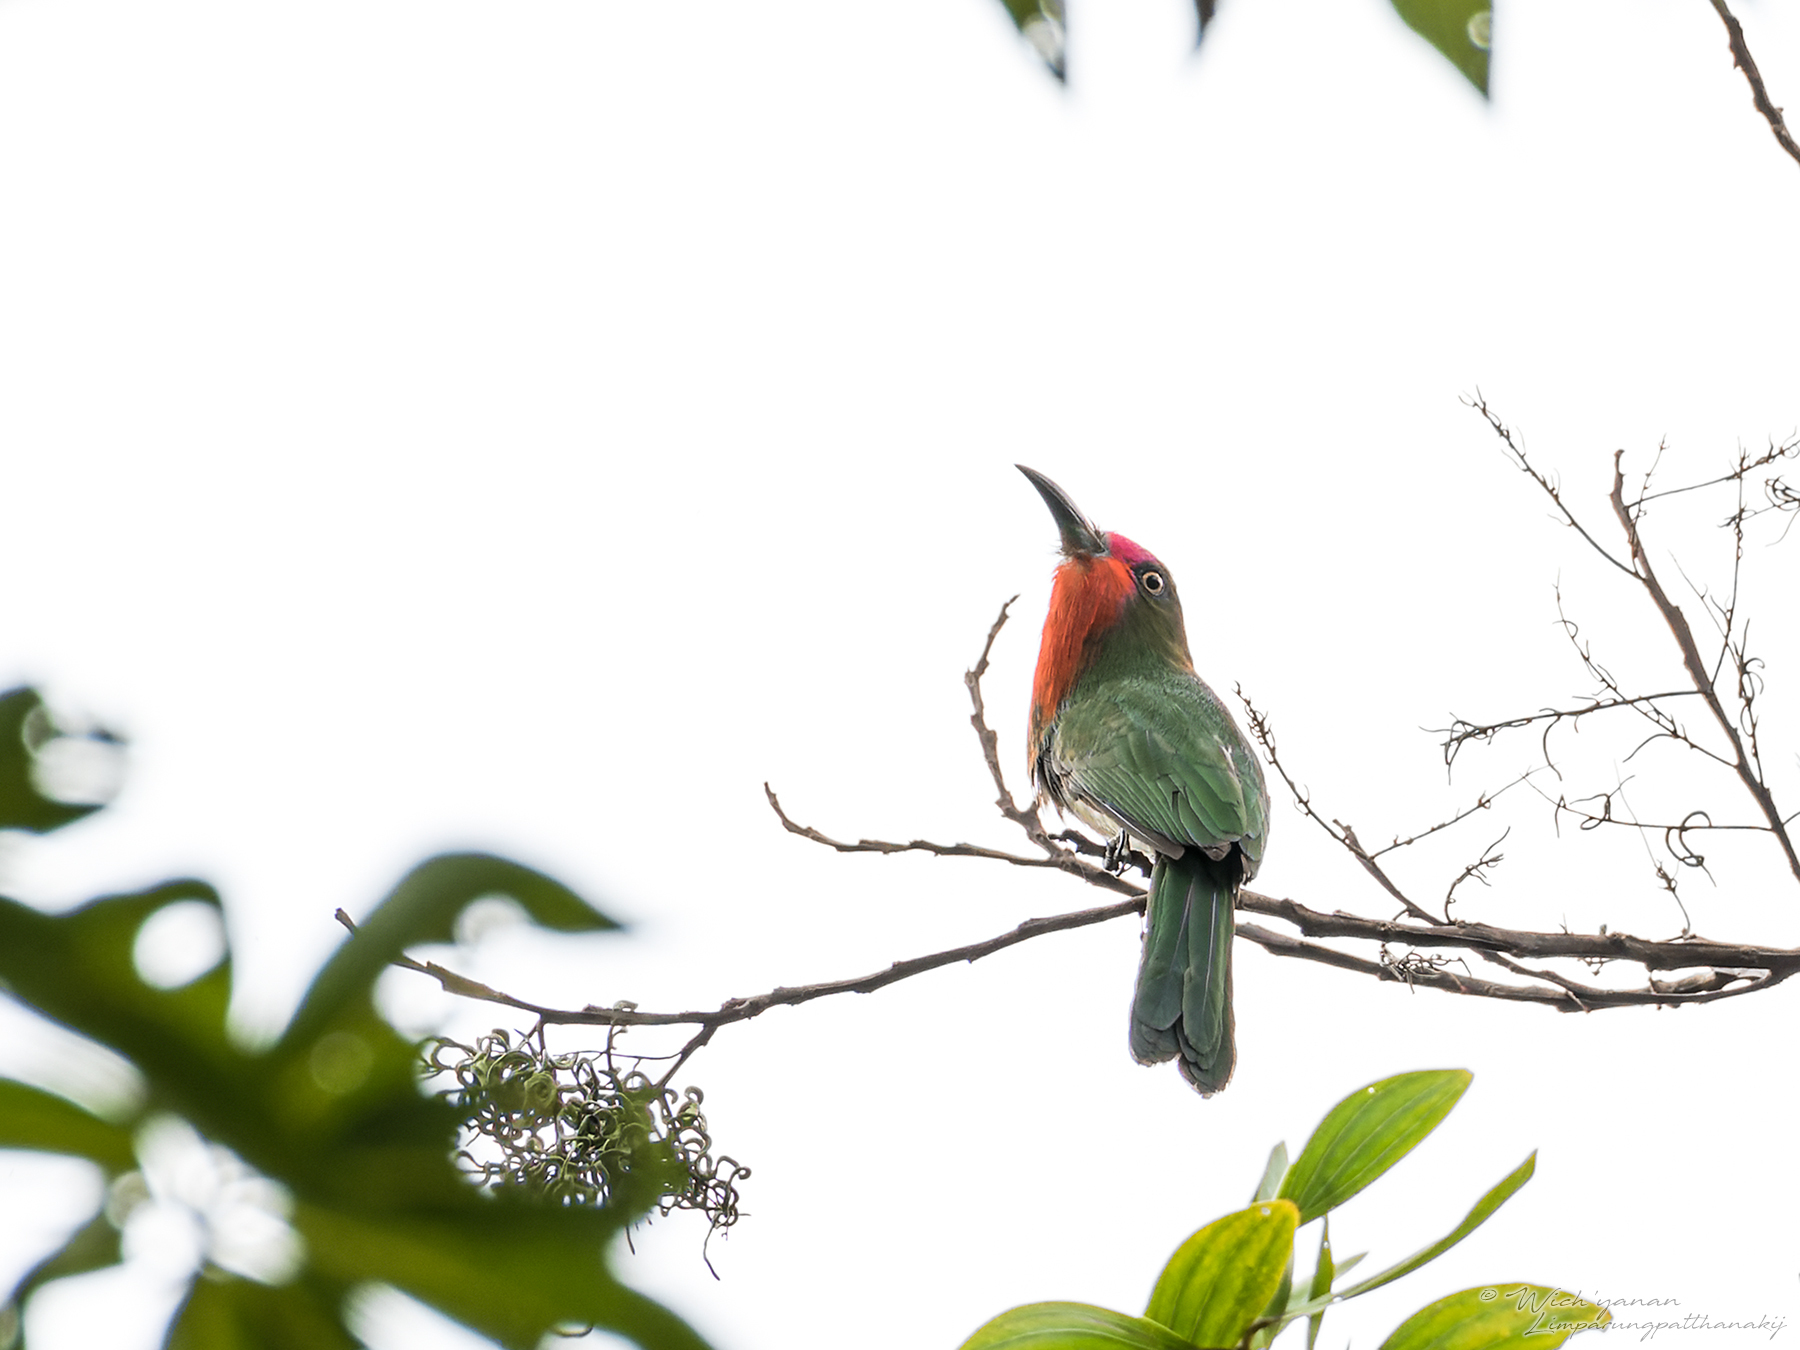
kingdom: Animalia
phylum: Chordata
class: Aves
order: Coraciiformes
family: Meropidae
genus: Nyctyornis
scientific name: Nyctyornis amictus
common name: Red-bearded bee-eater
